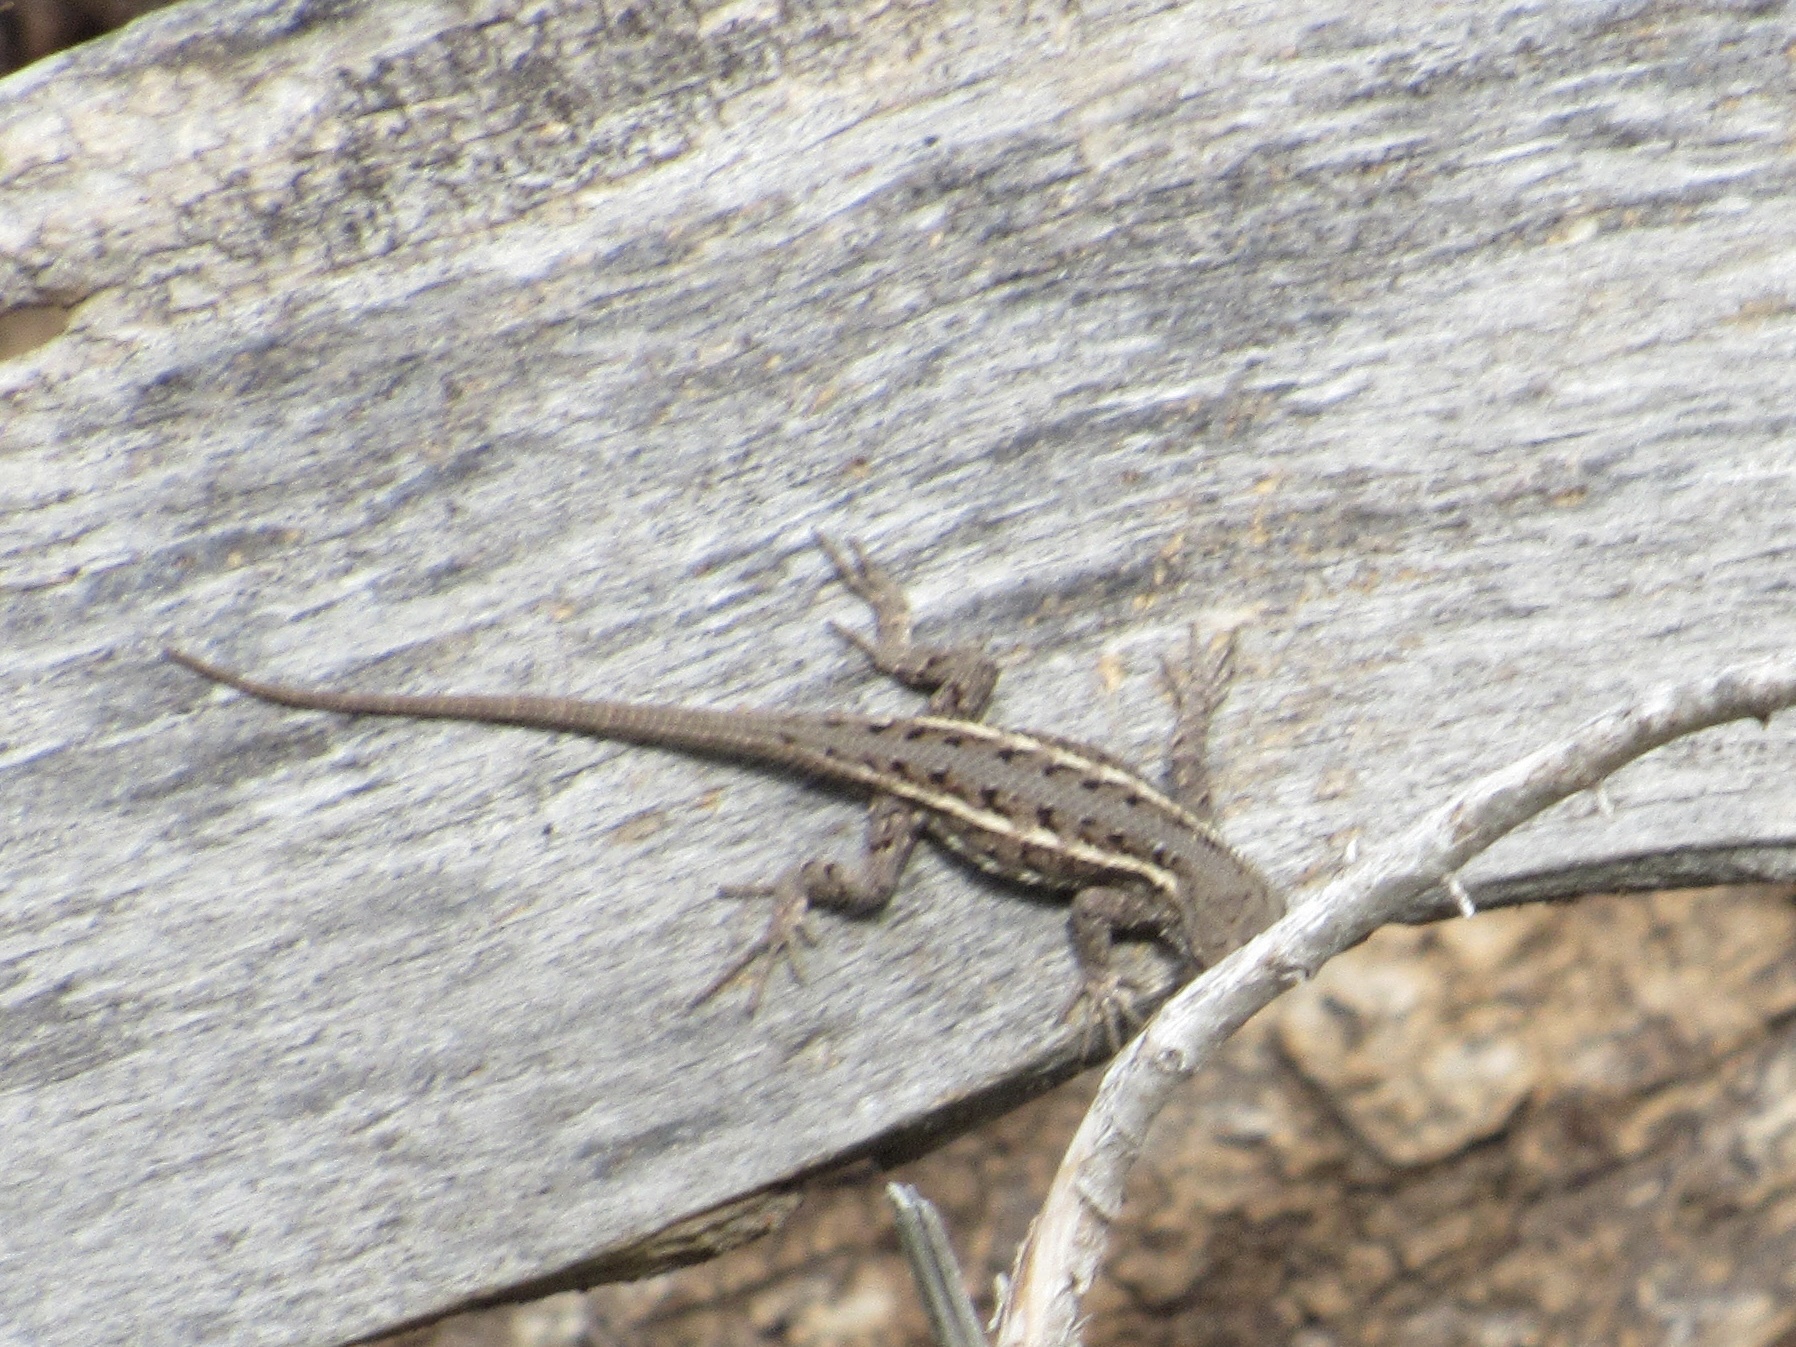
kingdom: Animalia
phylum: Chordata
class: Squamata
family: Phrynosomatidae
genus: Sceloporus
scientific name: Sceloporus consobrinus
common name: Southern prairie lizard
